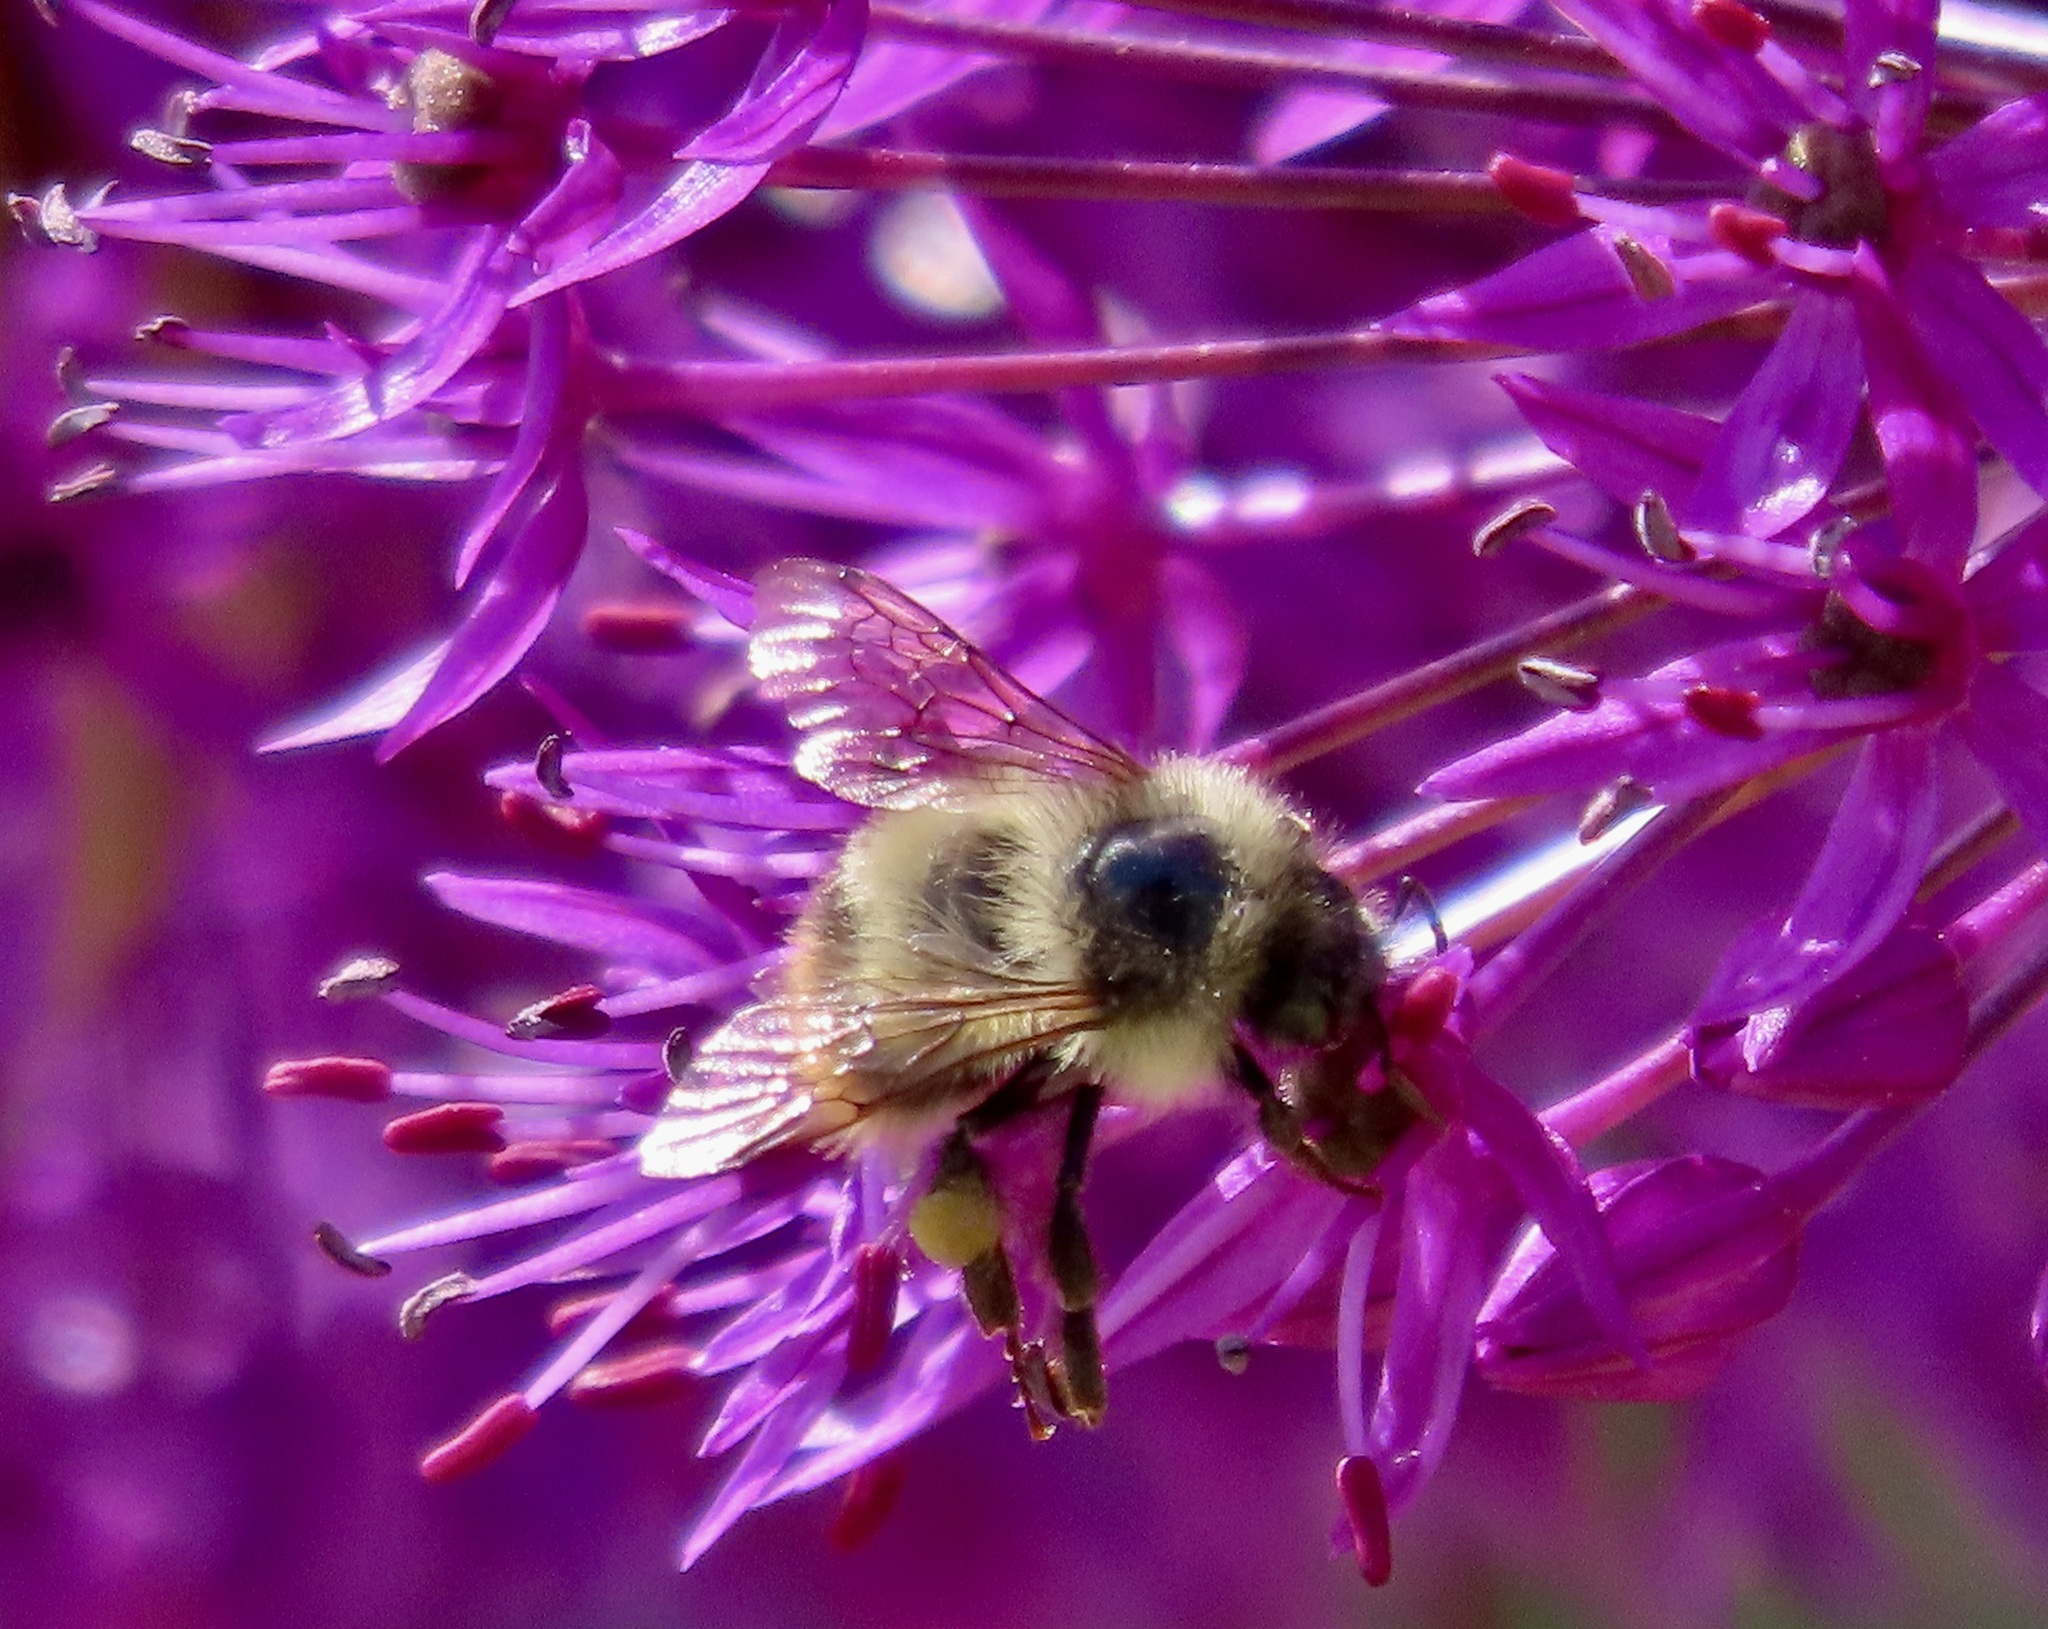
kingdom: Animalia
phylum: Arthropoda
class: Insecta
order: Hymenoptera
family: Apidae
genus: Bombus
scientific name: Bombus mixtus
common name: Fuzzy-horned bumble bee
